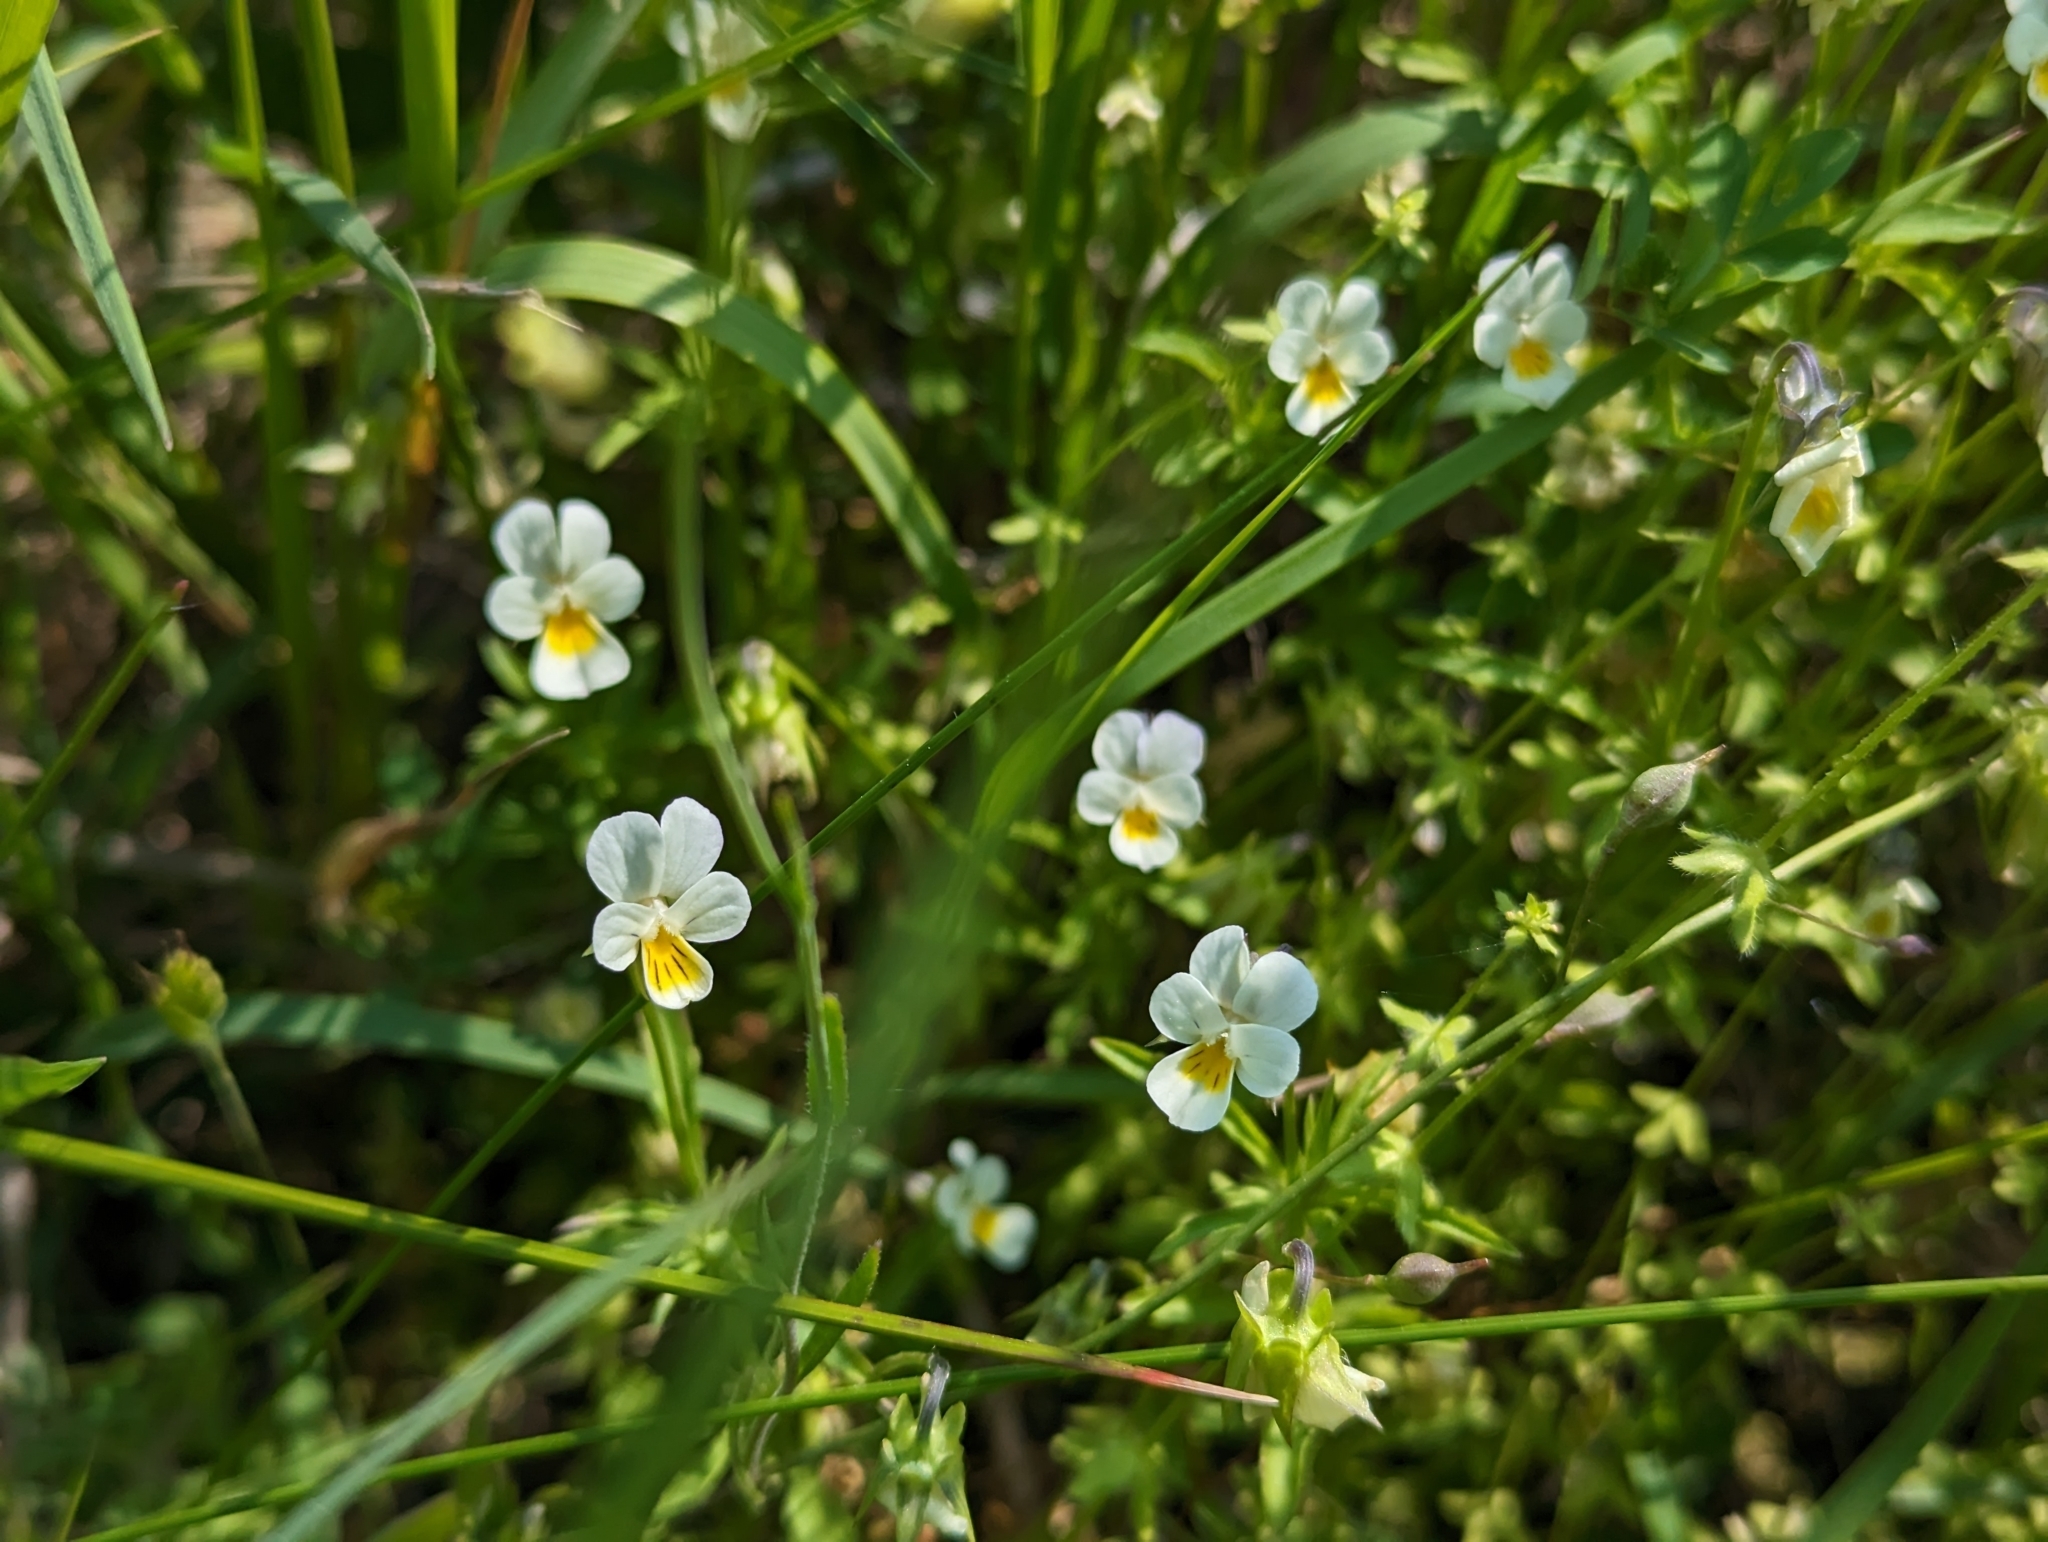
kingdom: Plantae
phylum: Tracheophyta
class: Magnoliopsida
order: Malpighiales
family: Violaceae
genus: Viola
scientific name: Viola arvensis
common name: Field pansy
